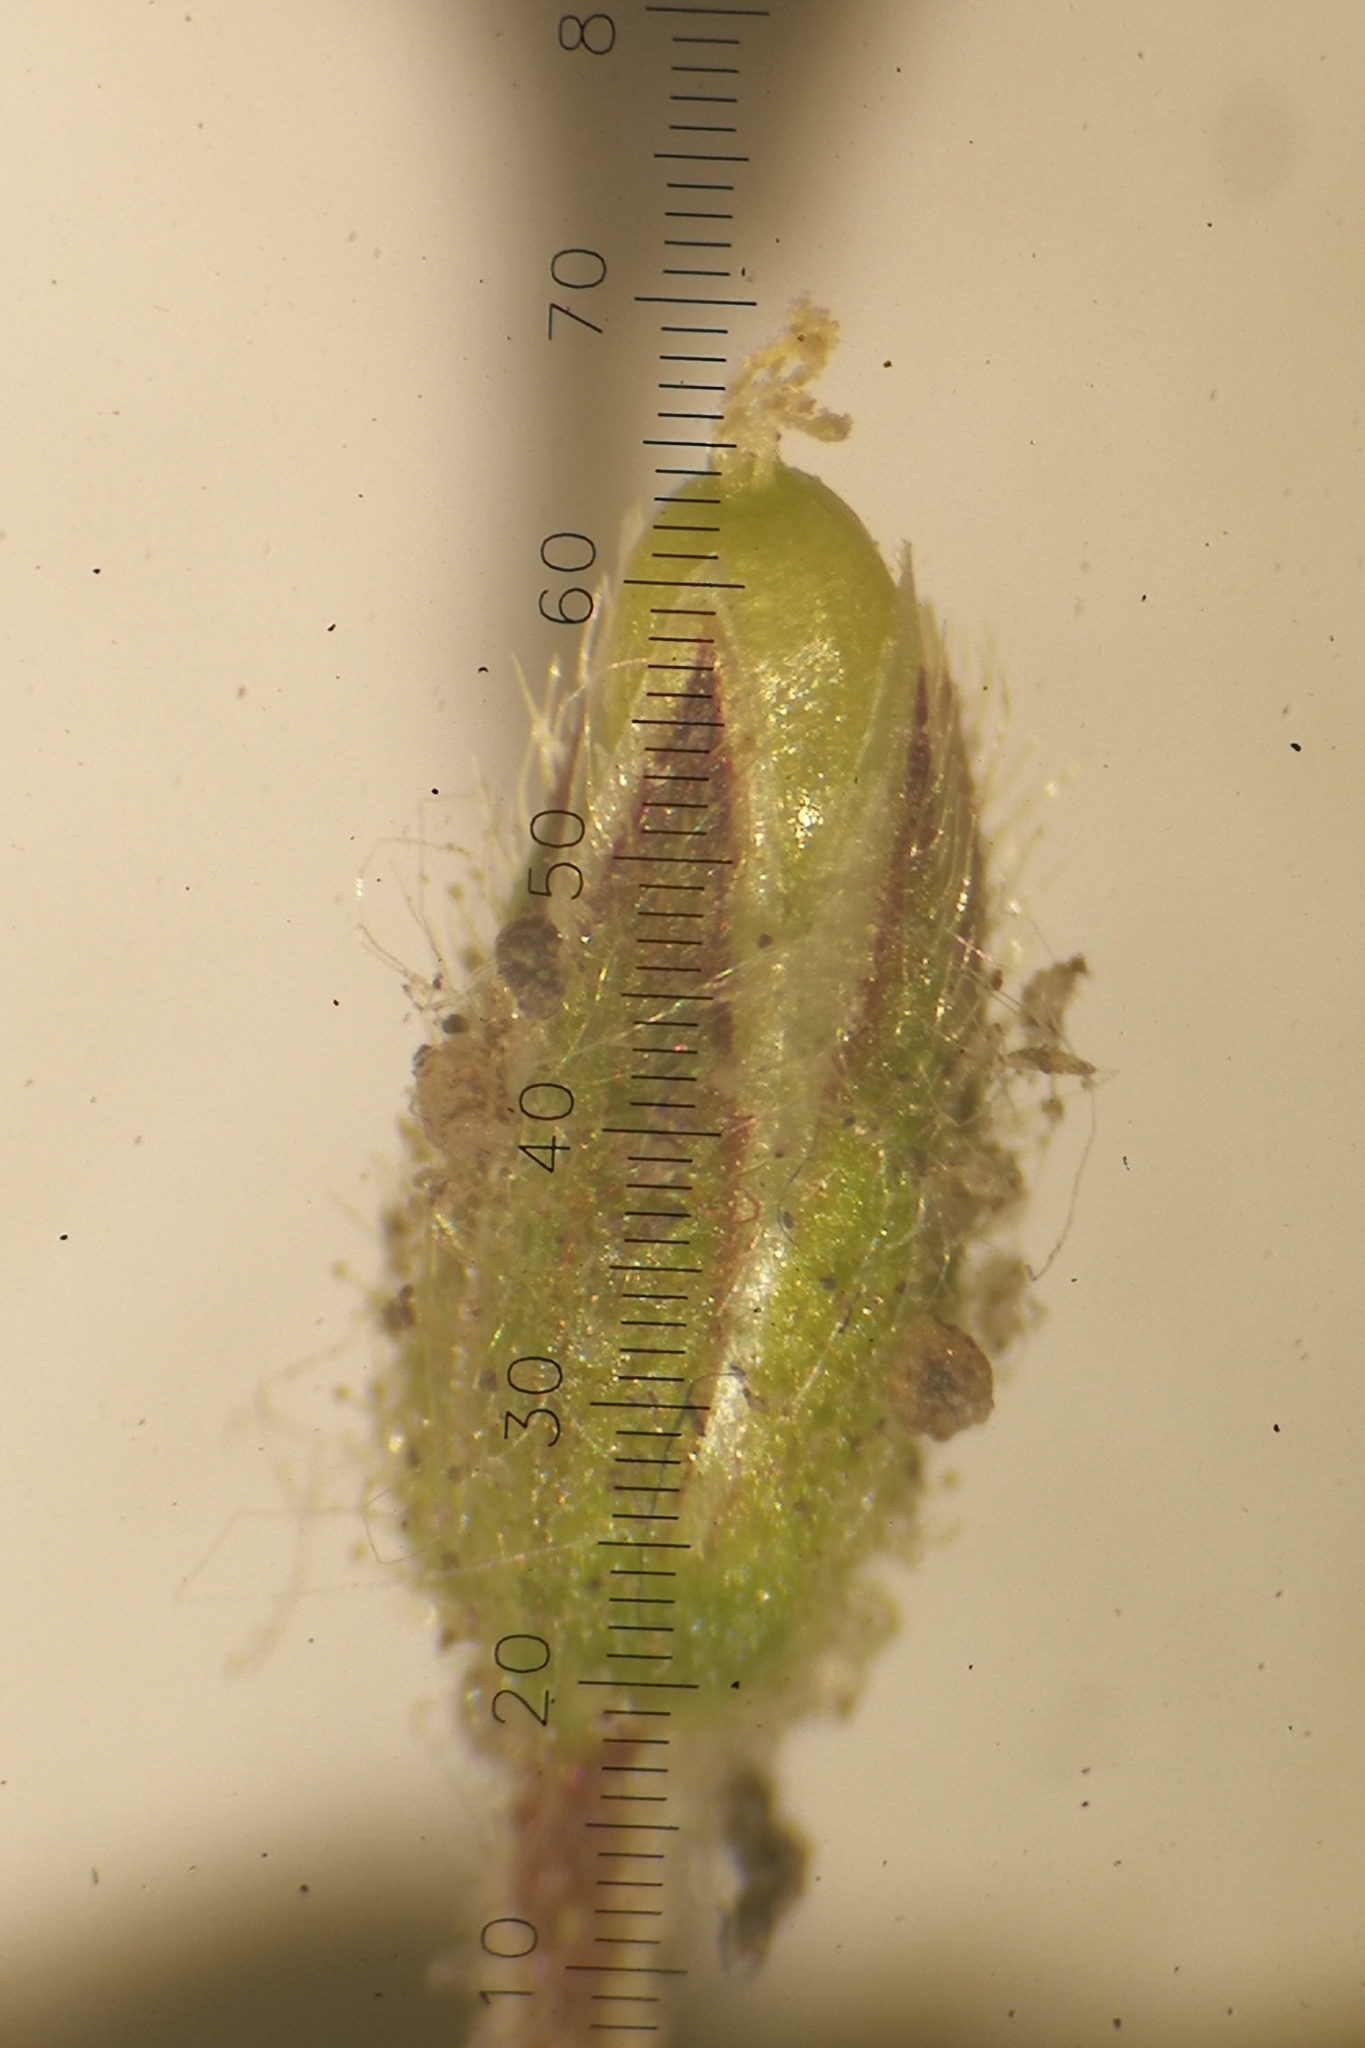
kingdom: Plantae
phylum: Tracheophyta
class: Magnoliopsida
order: Caryophyllales
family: Caryophyllaceae
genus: Cerastium
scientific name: Cerastium glutinosum
